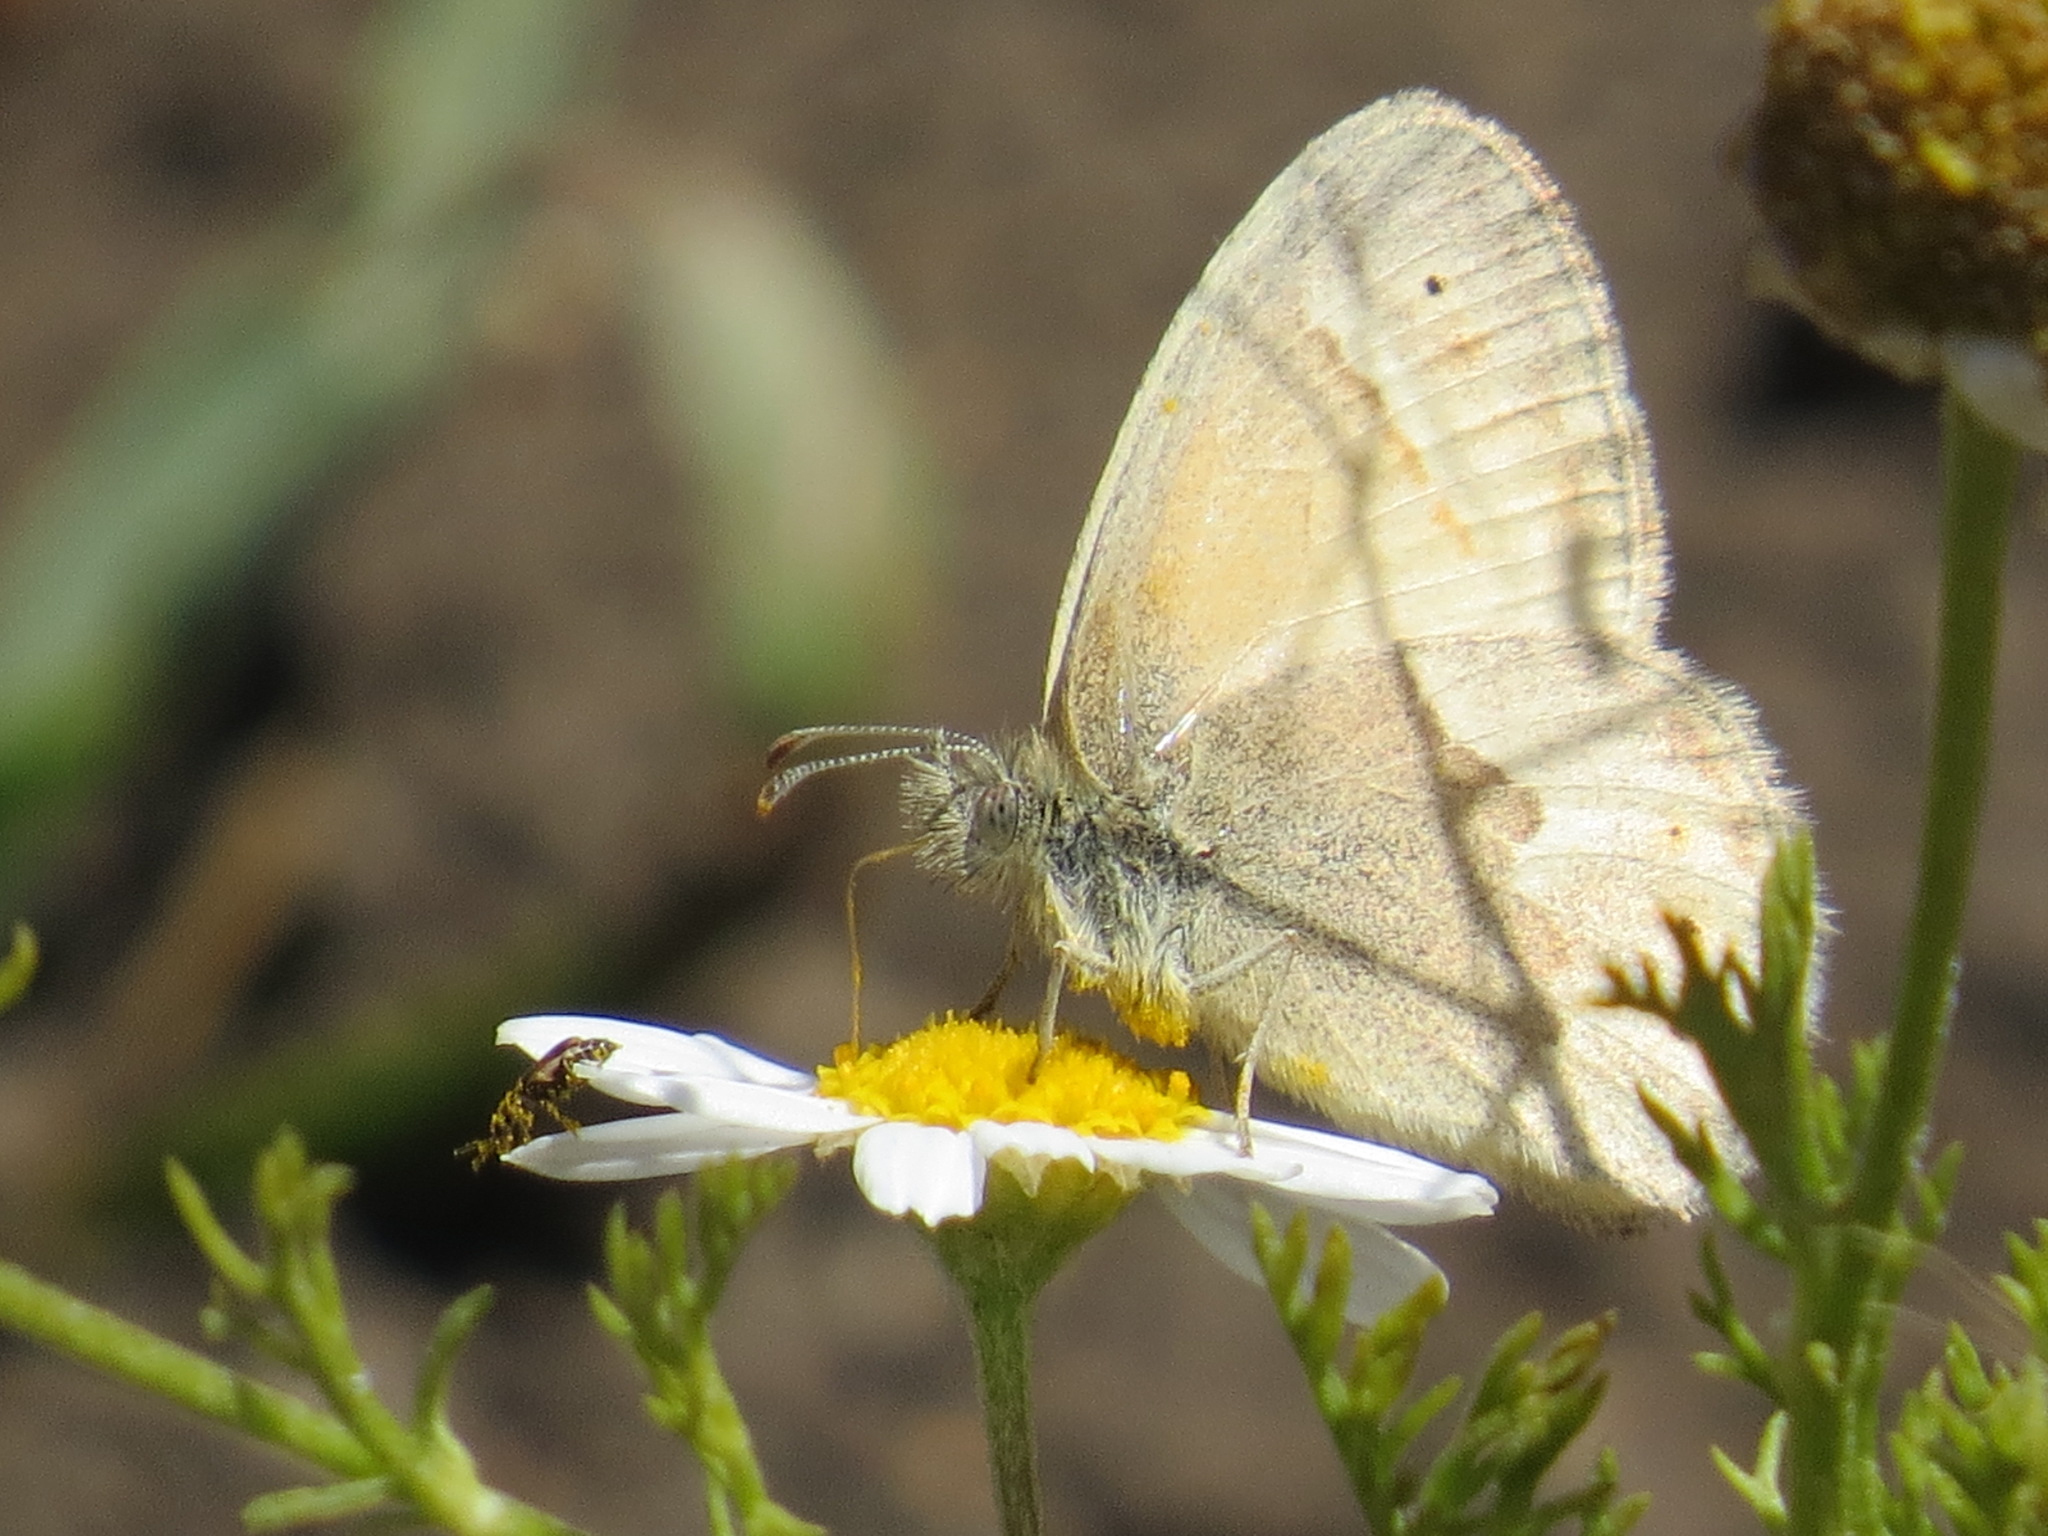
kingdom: Animalia
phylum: Arthropoda
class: Insecta
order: Lepidoptera
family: Nymphalidae
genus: Coenonympha
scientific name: Coenonympha california
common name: Common ringlet
